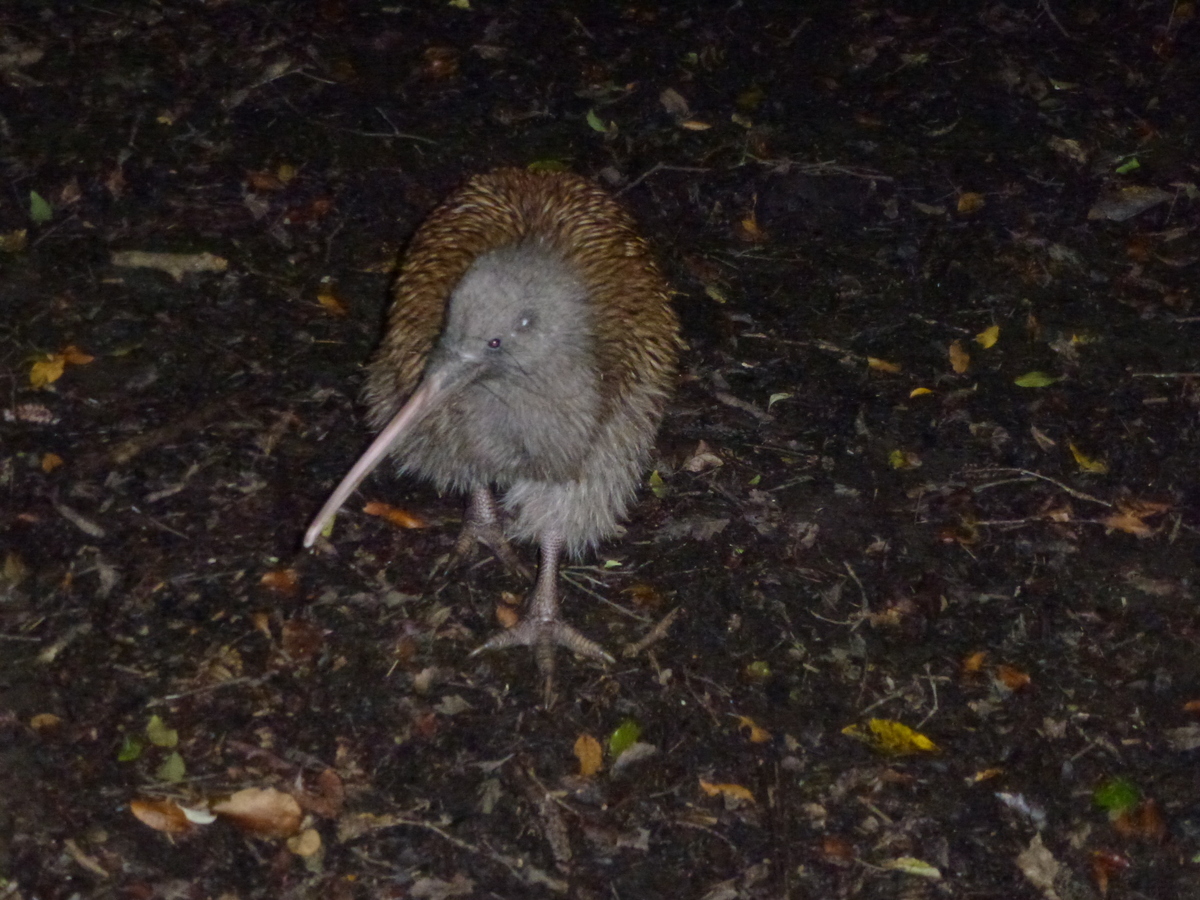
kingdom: Animalia
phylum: Chordata
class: Aves
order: Apterygiformes
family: Apterygidae
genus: Apteryx
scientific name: Apteryx australis
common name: Southern brown kiwi
